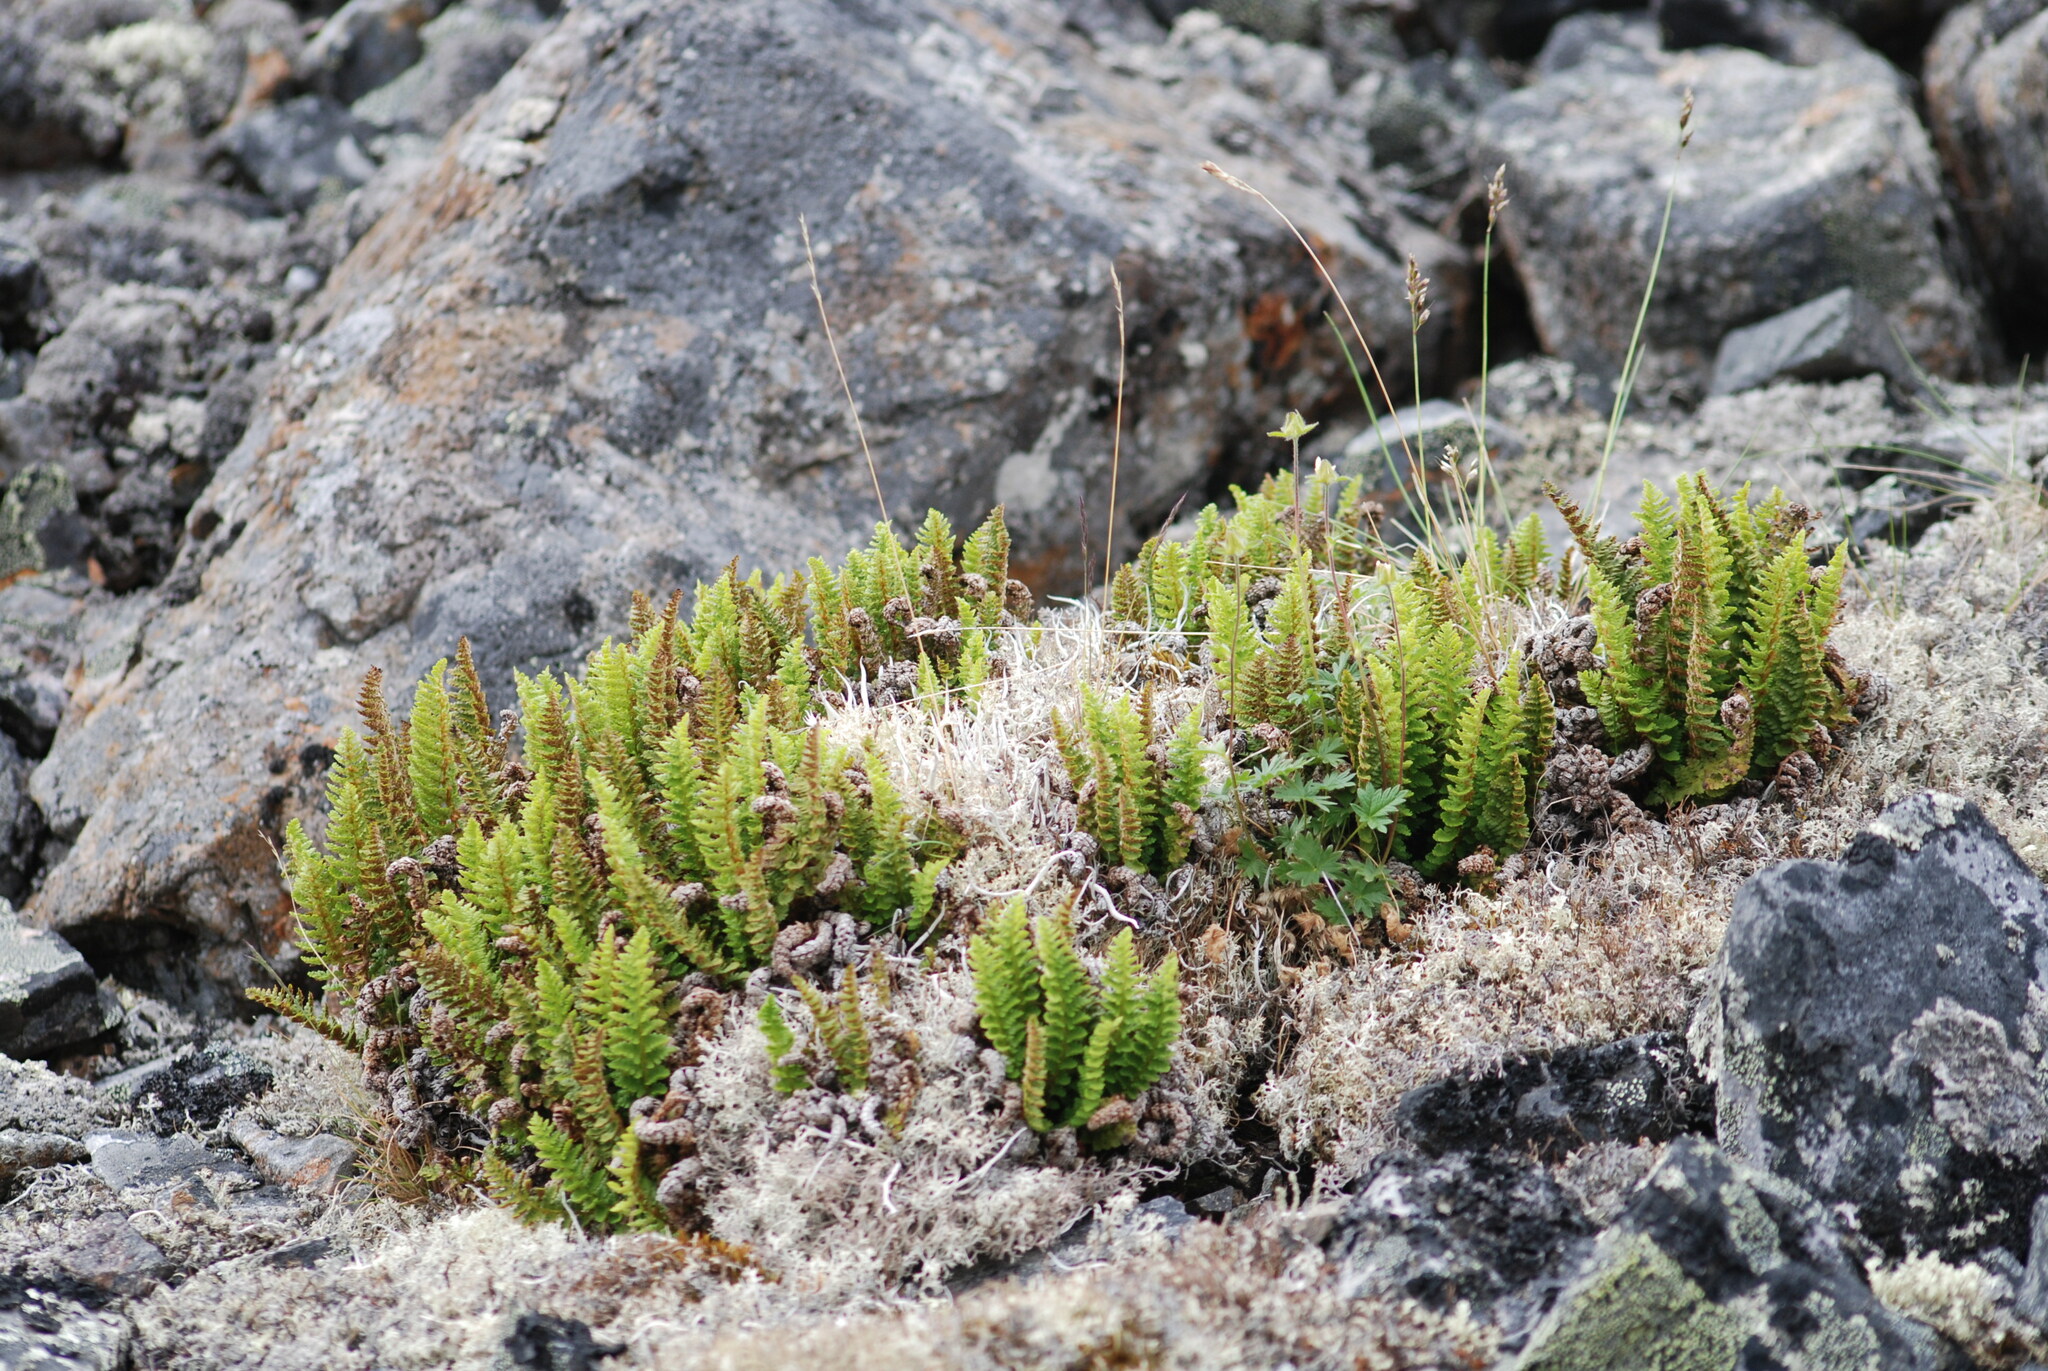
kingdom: Plantae
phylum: Tracheophyta
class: Polypodiopsida
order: Polypodiales
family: Dryopteridaceae
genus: Dryopteris
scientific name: Dryopteris fragrans
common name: Fragrant wood fern
